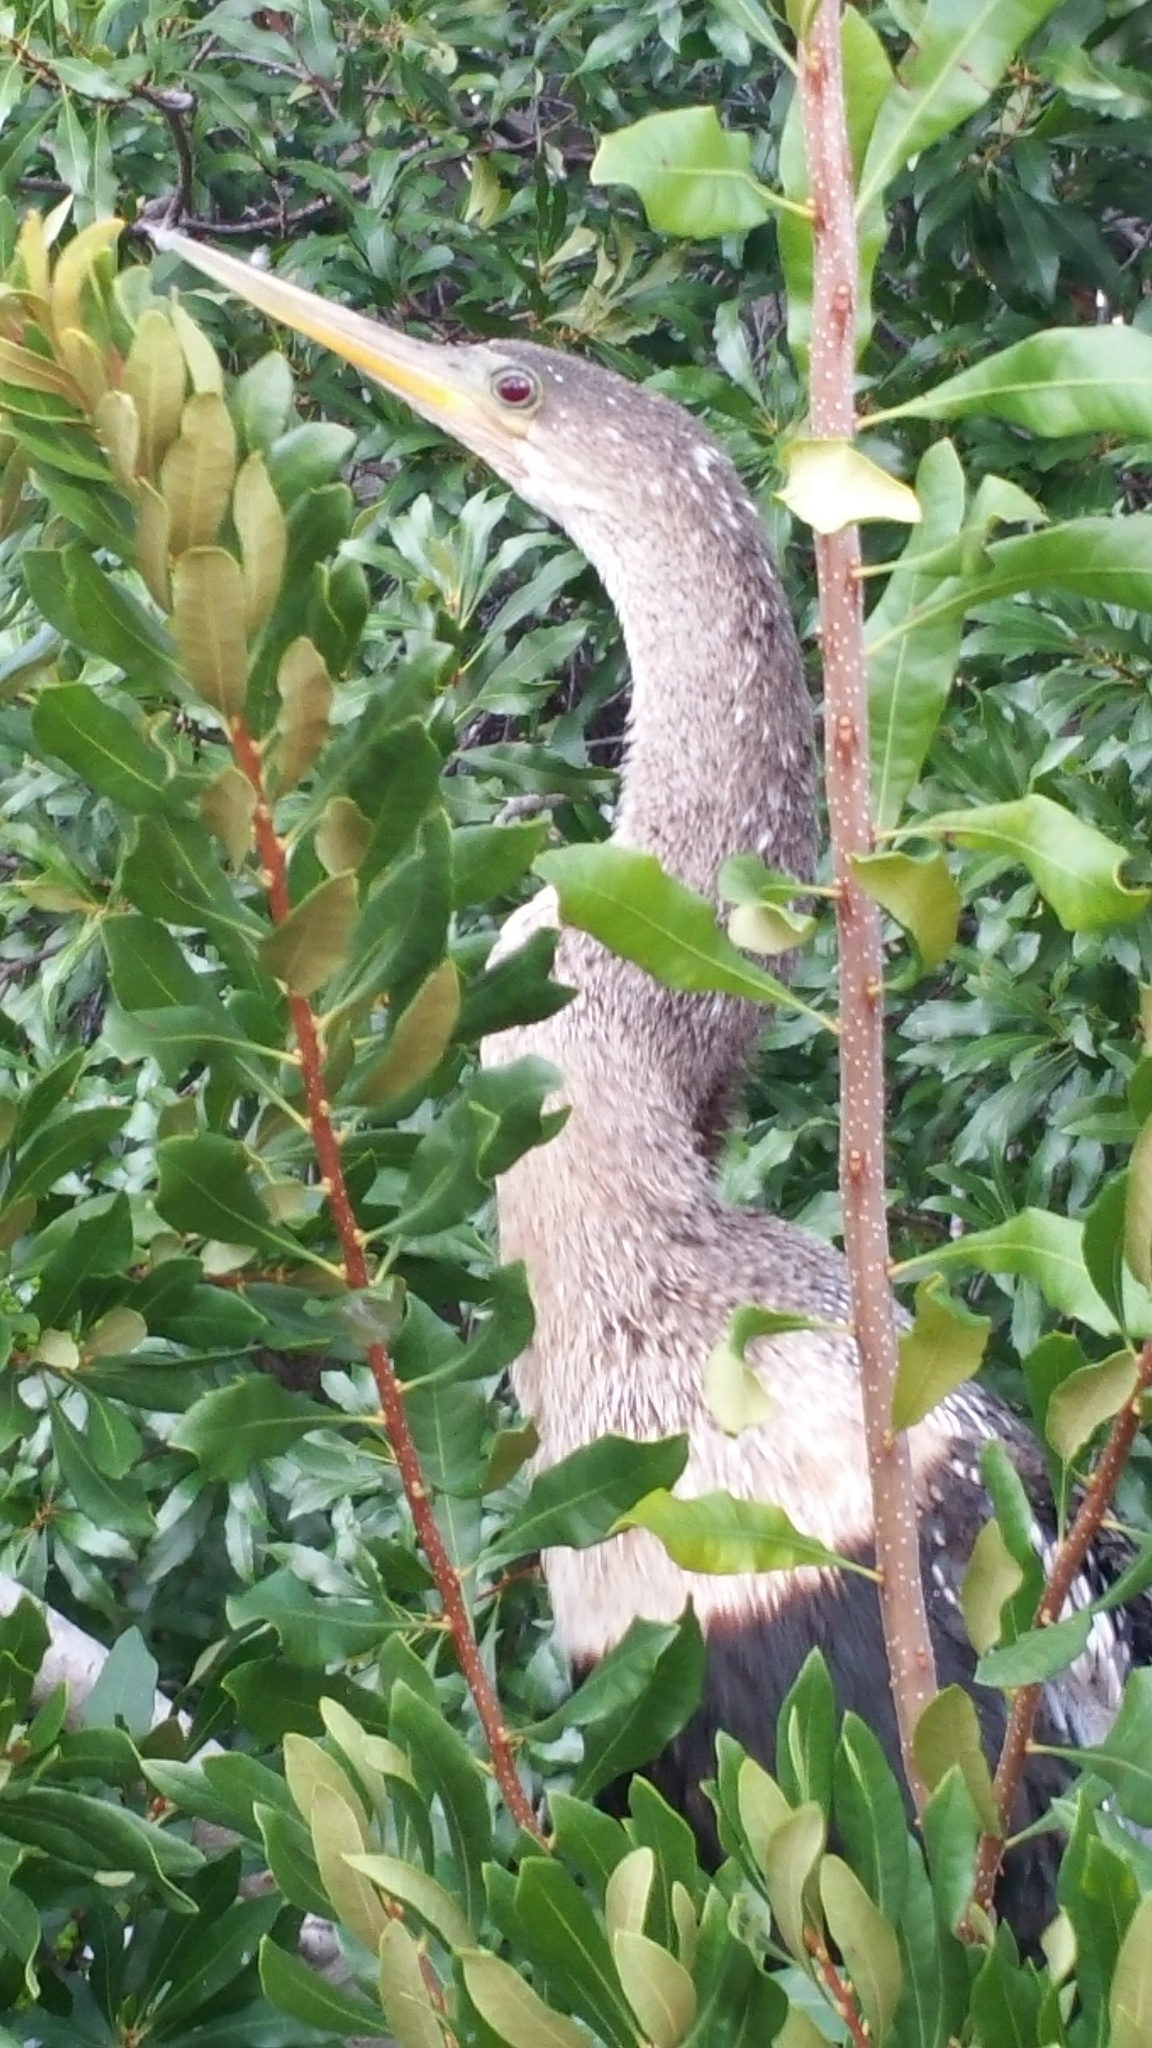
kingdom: Animalia
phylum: Chordata
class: Aves
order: Suliformes
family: Anhingidae
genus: Anhinga
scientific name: Anhinga anhinga
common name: Anhinga
